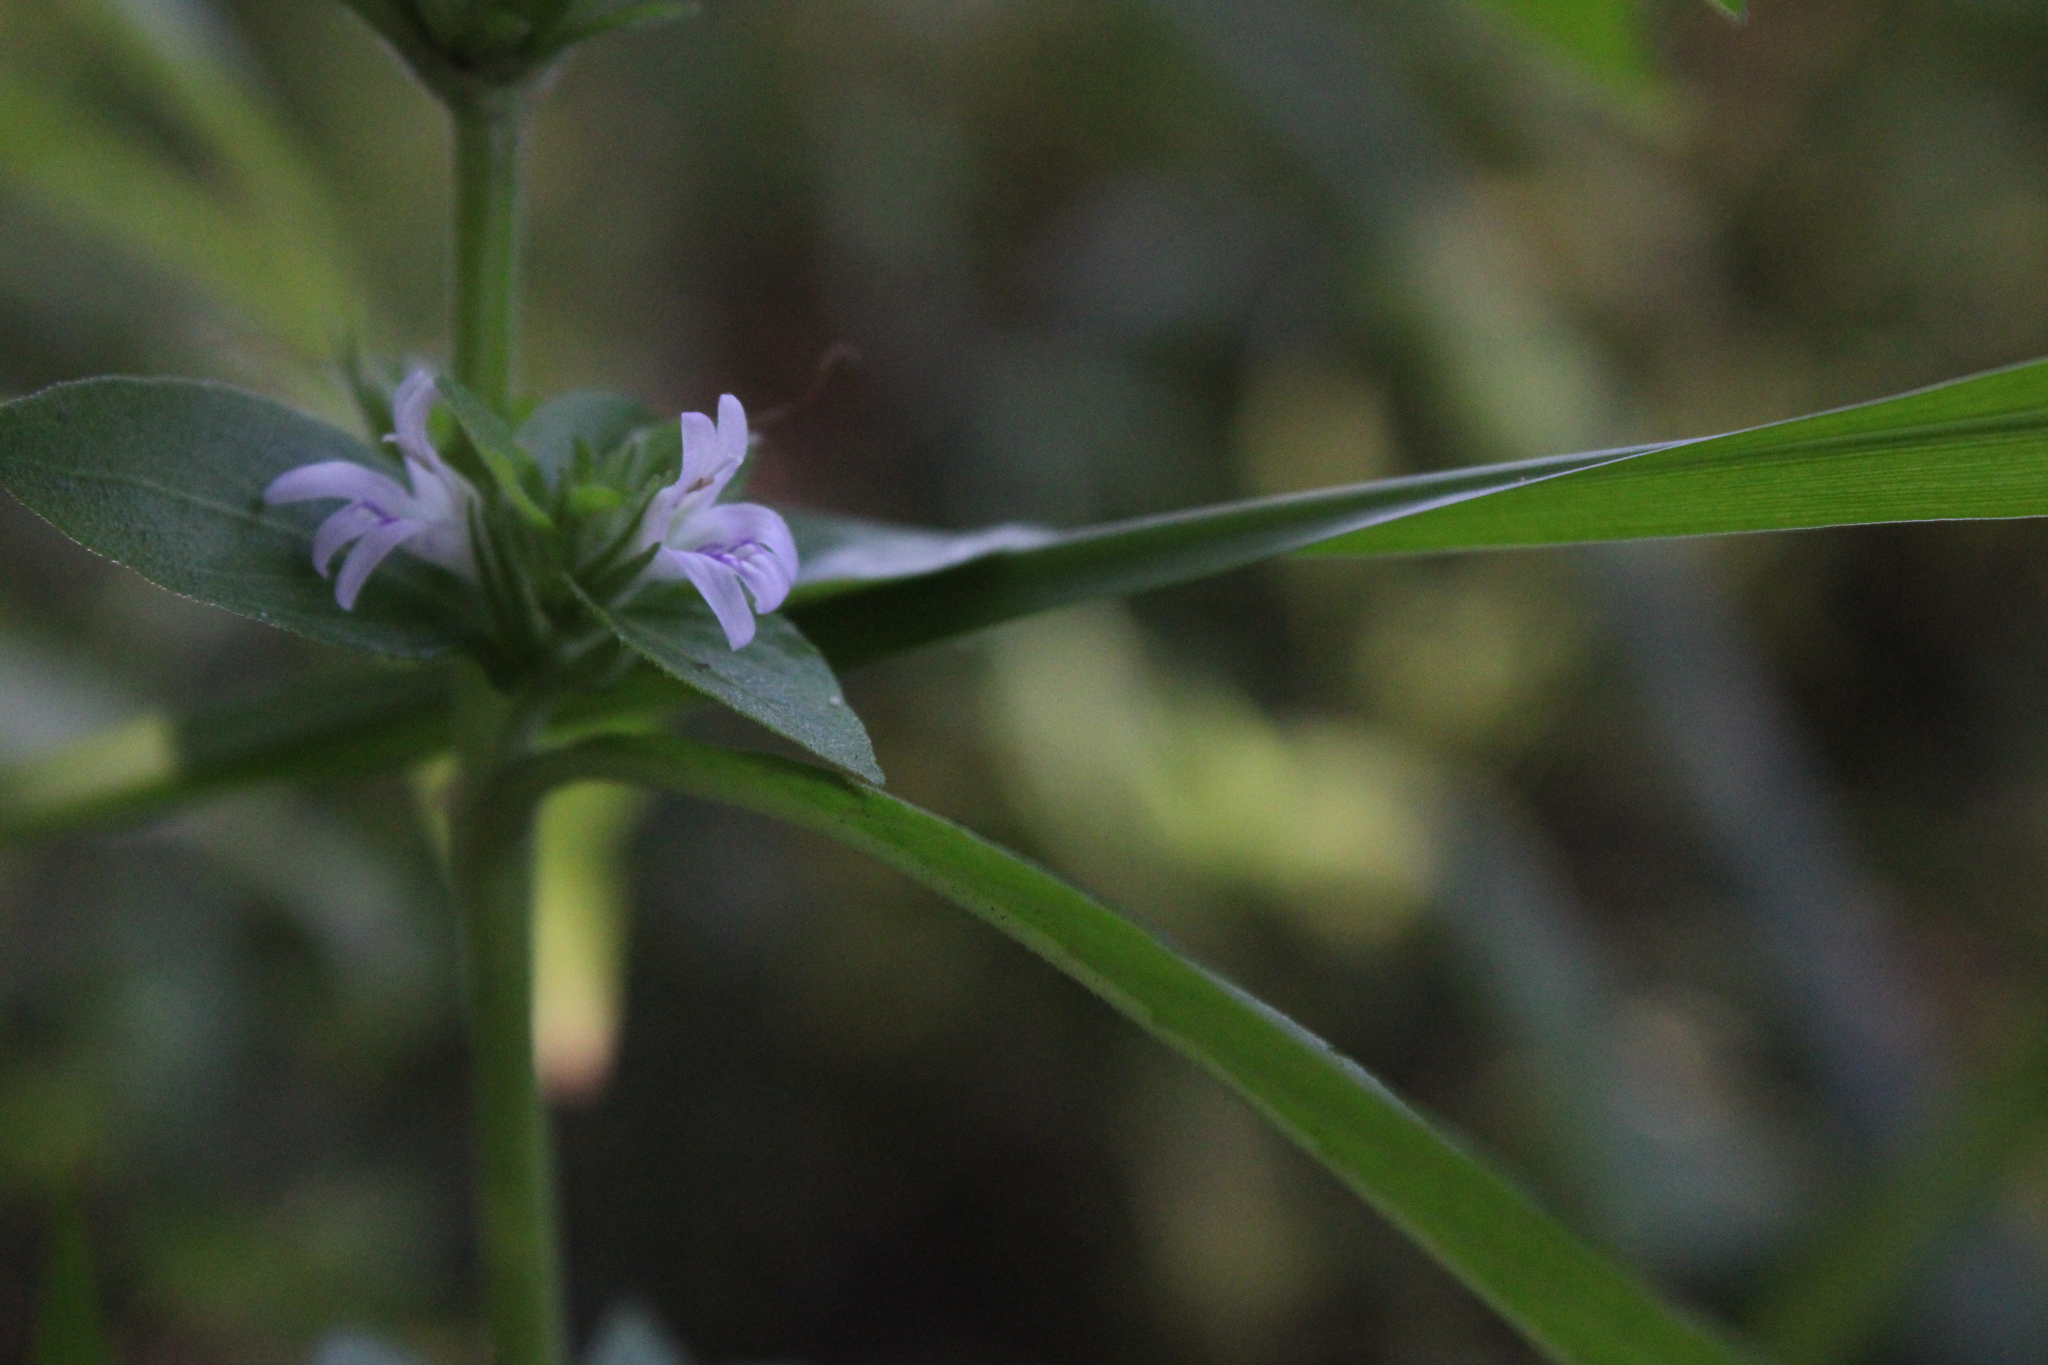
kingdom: Plantae
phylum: Tracheophyta
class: Magnoliopsida
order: Lamiales
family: Lamiaceae
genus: Cantinoa
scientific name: Cantinoa mutabilis
